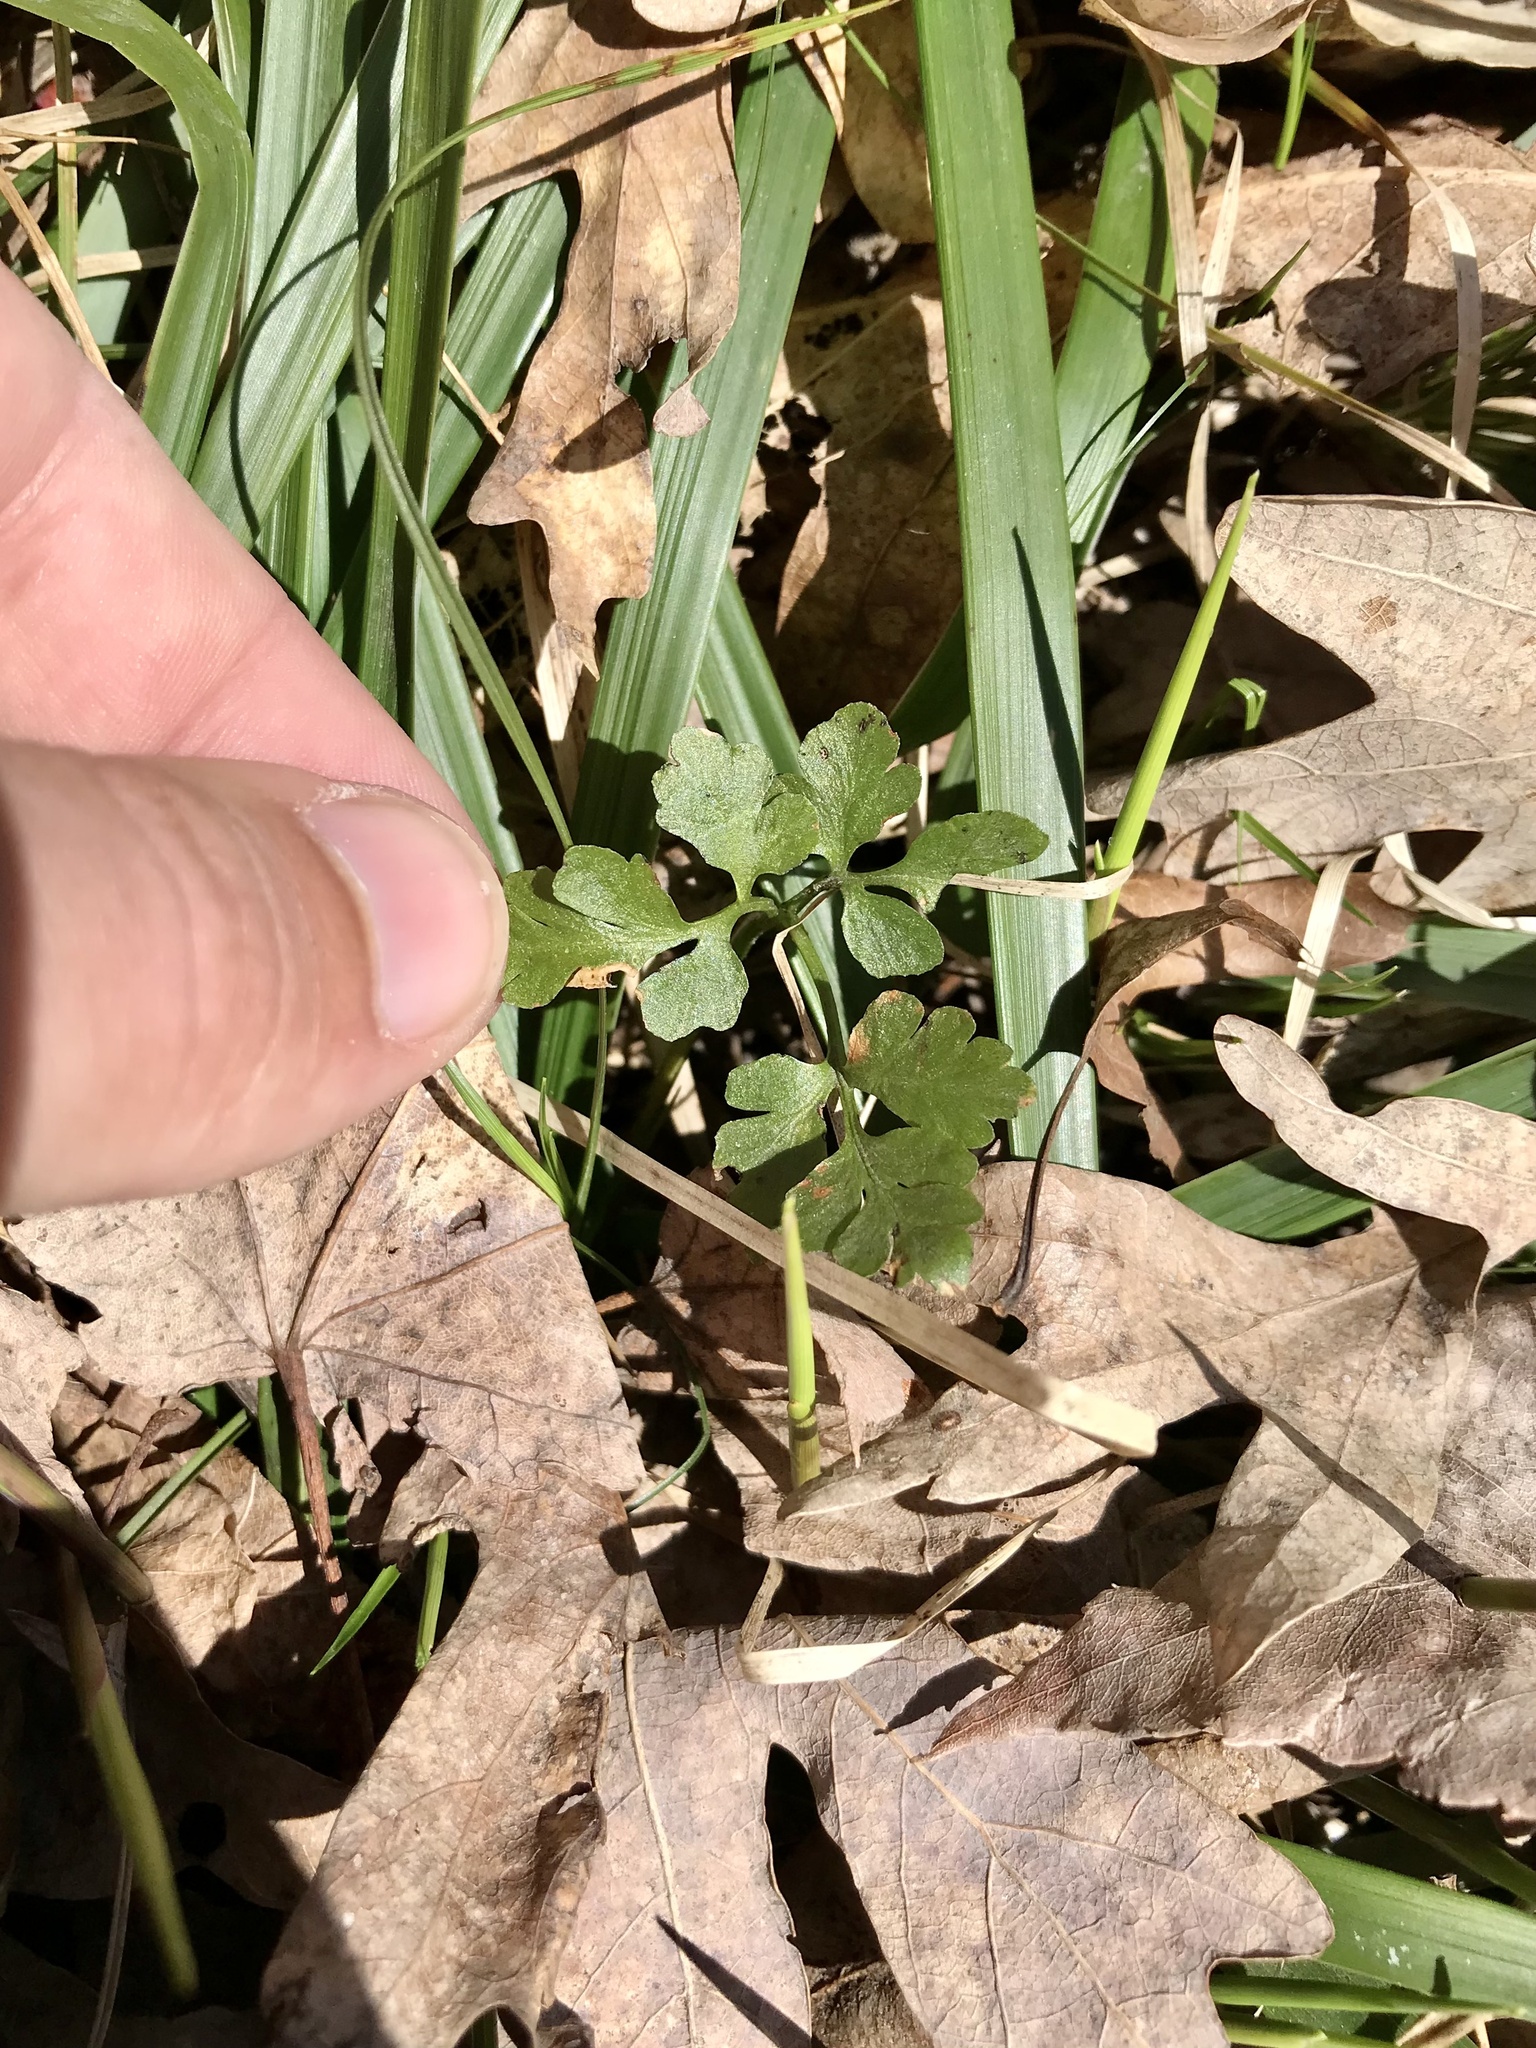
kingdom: Plantae
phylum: Tracheophyta
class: Polypodiopsida
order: Ophioglossales
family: Ophioglossaceae
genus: Sceptridium
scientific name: Sceptridium oneidense
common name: Blunt-lobed grapefern
